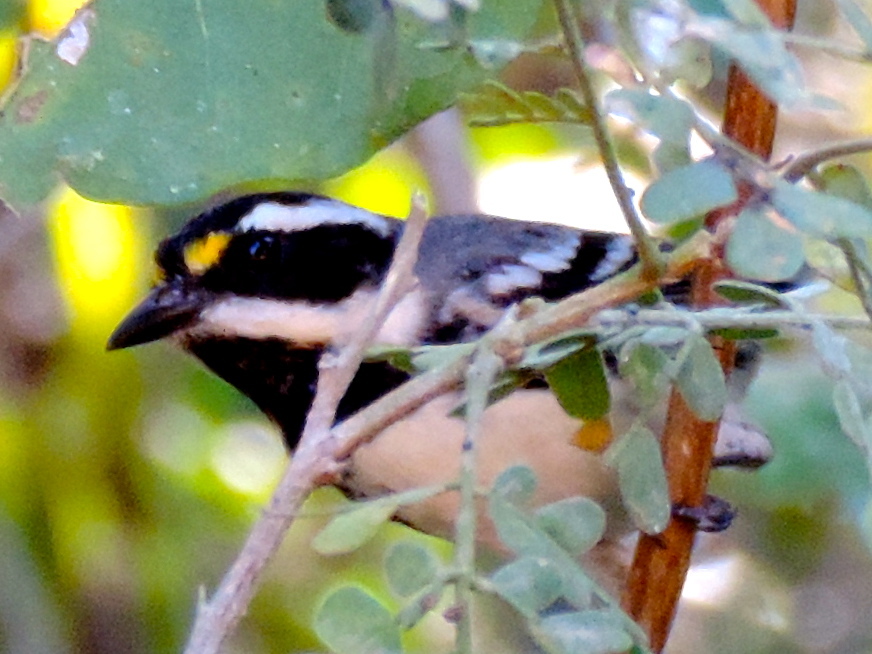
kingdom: Animalia
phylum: Chordata
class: Aves
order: Passeriformes
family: Parulidae
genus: Setophaga
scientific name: Setophaga nigrescens
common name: Black-throated gray warbler
